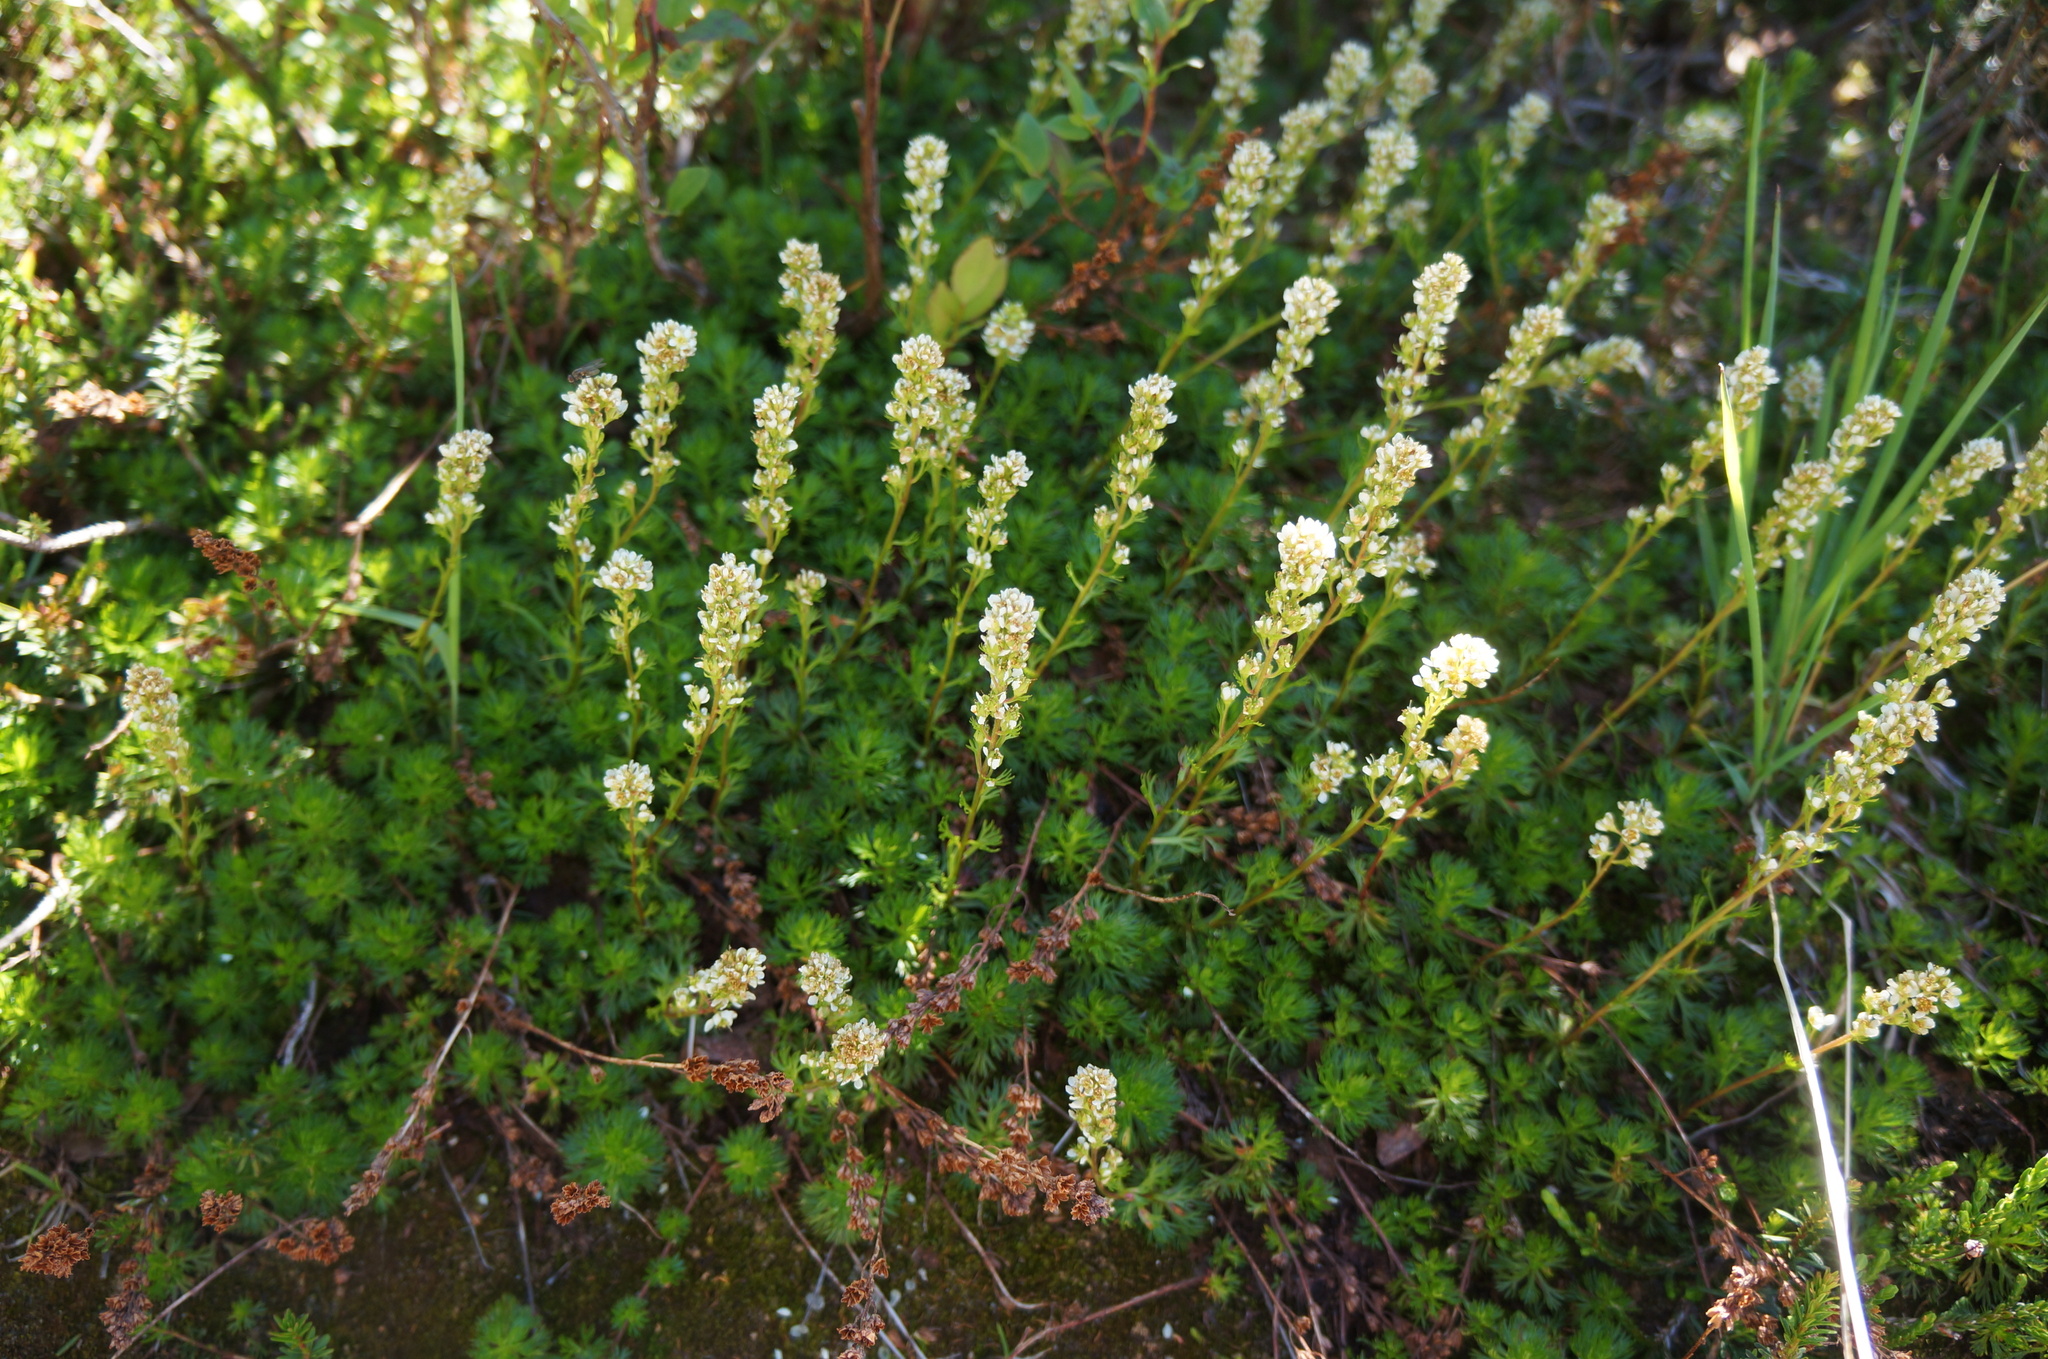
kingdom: Plantae
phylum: Tracheophyta
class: Magnoliopsida
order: Rosales
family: Rosaceae
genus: Luetkea
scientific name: Luetkea pectinata
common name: Partridgefoot
